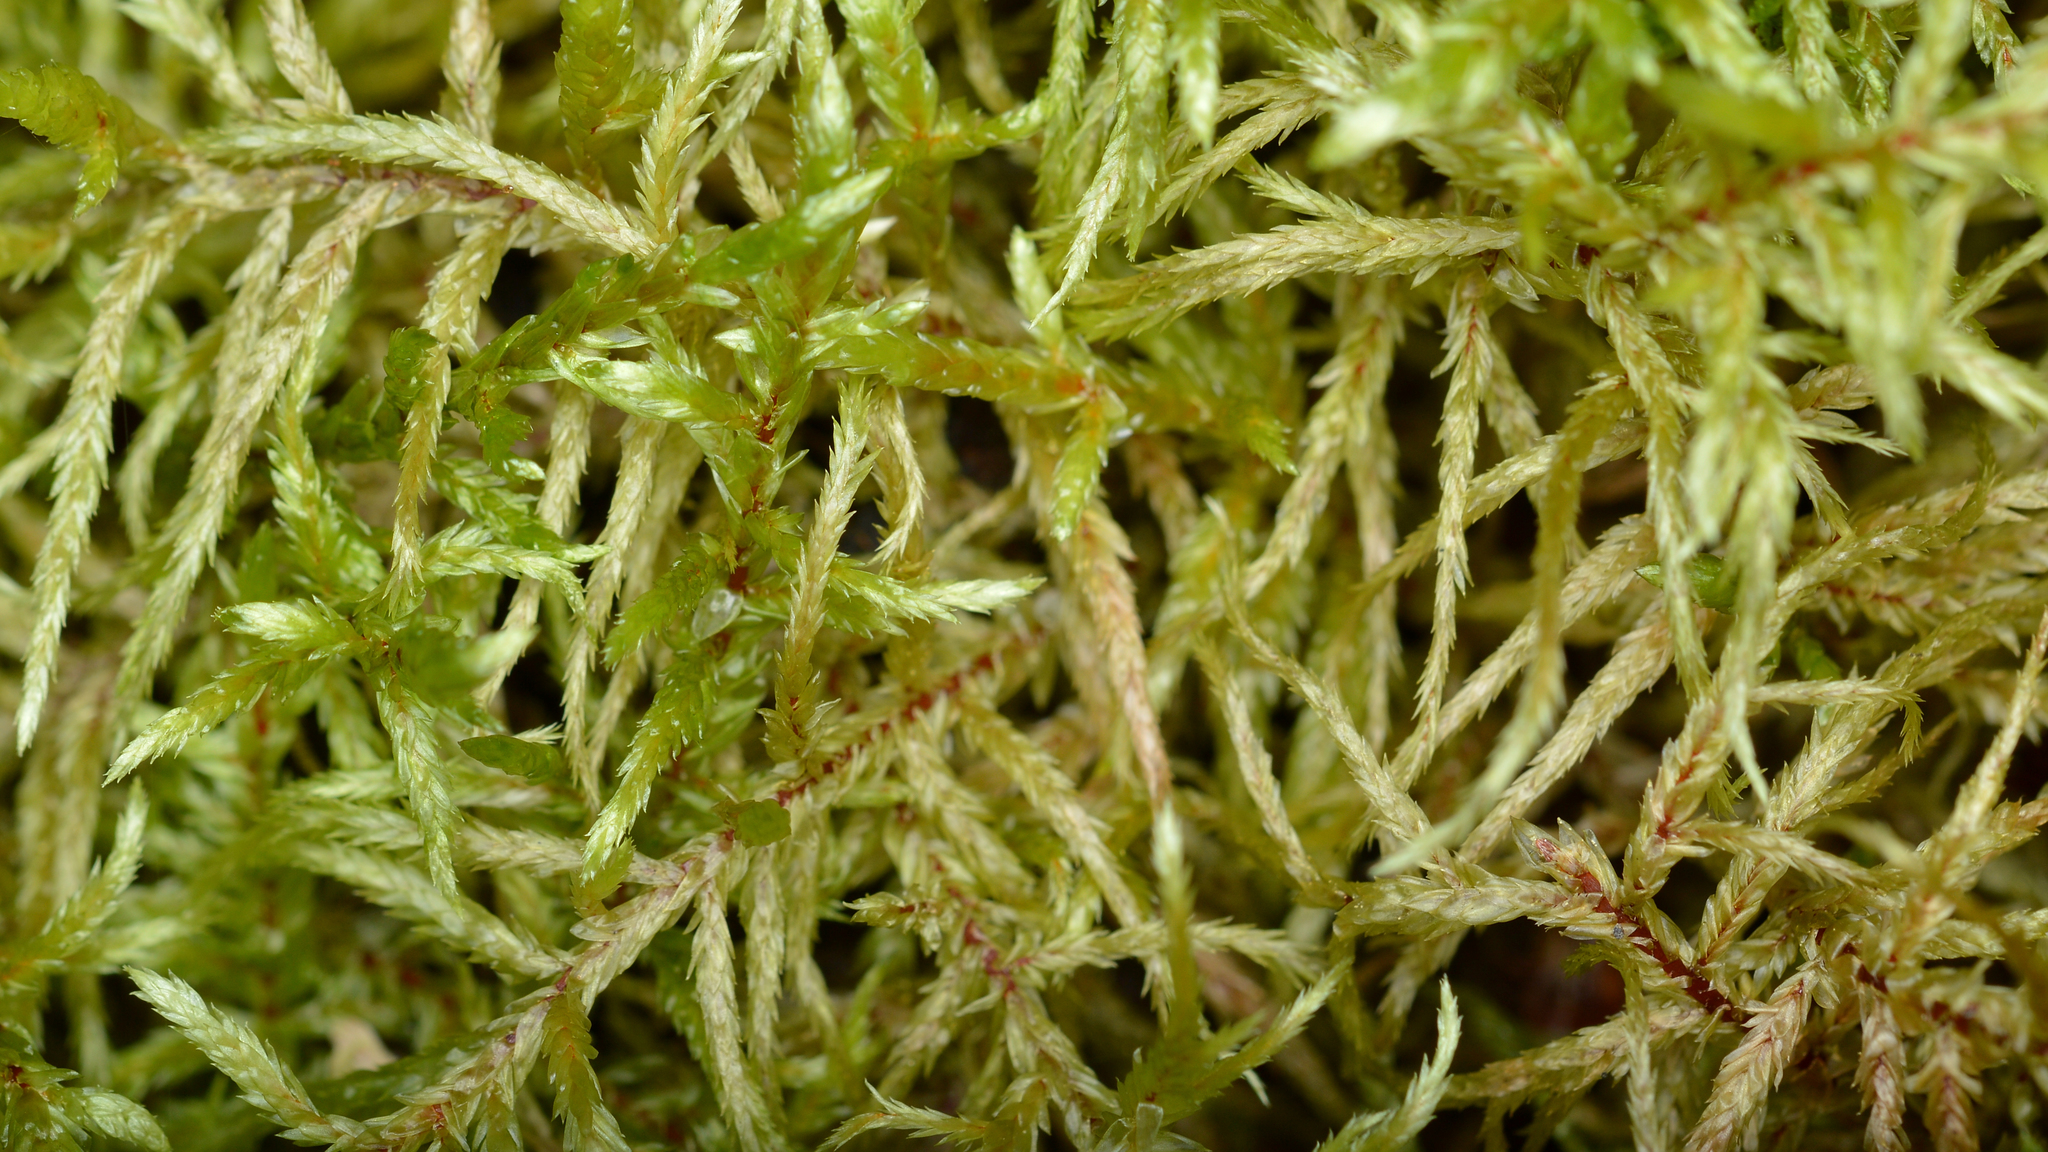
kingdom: Plantae
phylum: Bryophyta
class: Bryopsida
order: Hypnales
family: Hylocomiaceae
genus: Pleurozium
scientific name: Pleurozium schreberi
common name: Red-stemmed feather moss
